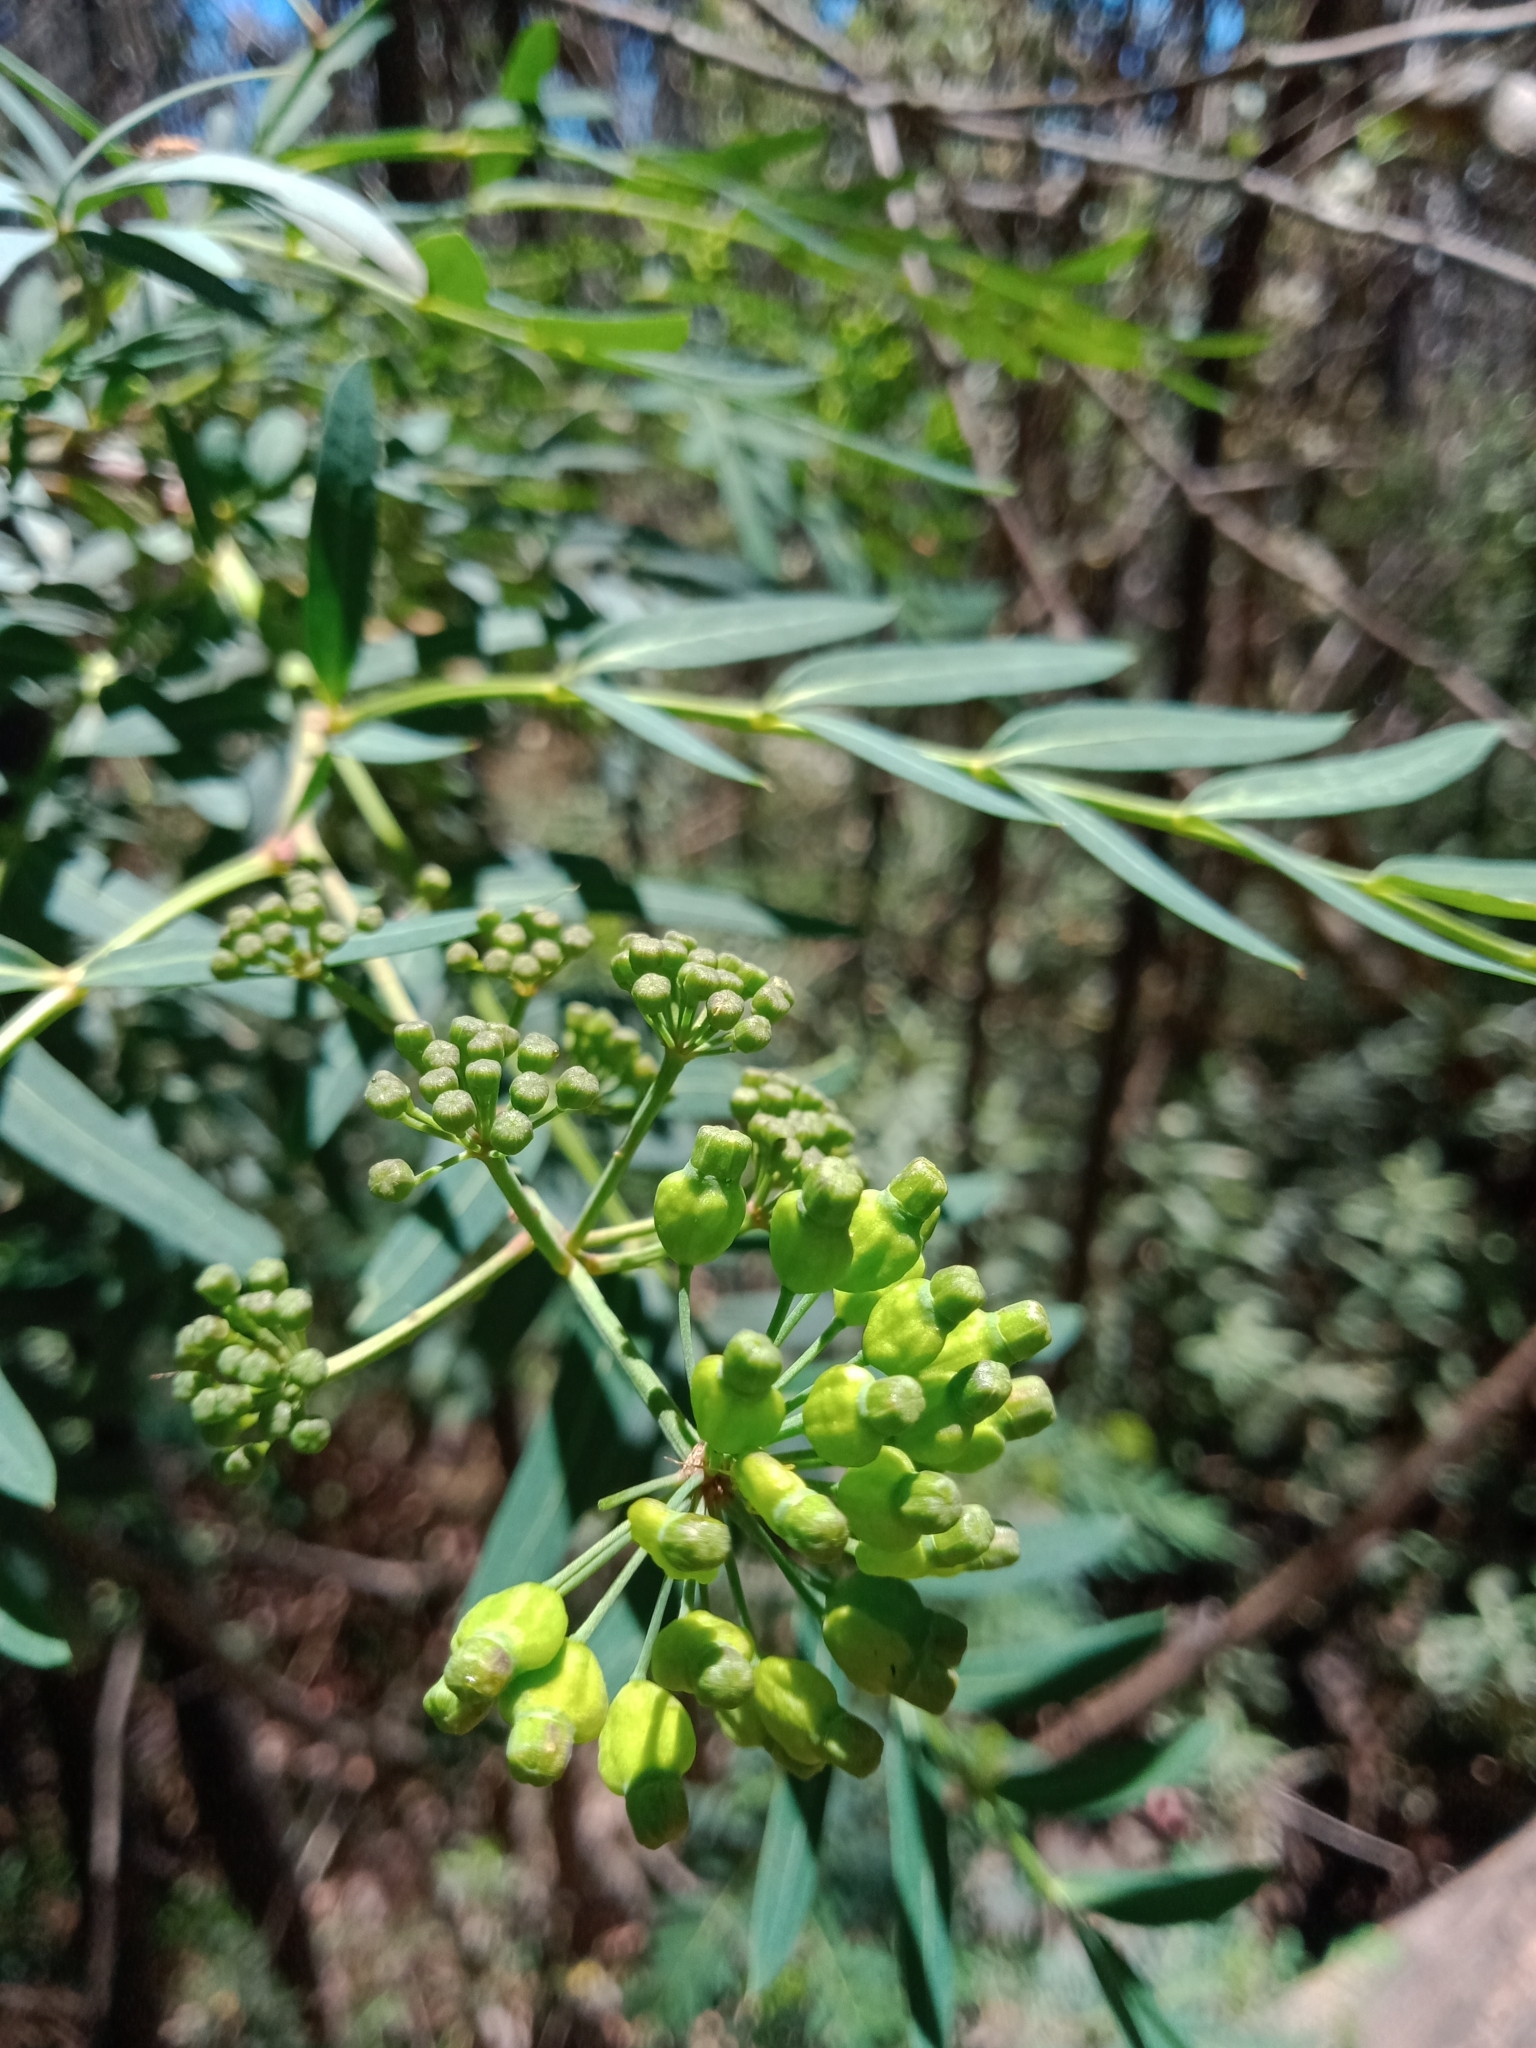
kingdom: Plantae
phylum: Tracheophyta
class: Magnoliopsida
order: Apiales
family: Araliaceae
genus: Polyscias
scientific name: Polyscias sambucifolia
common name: Elderberry-ash
